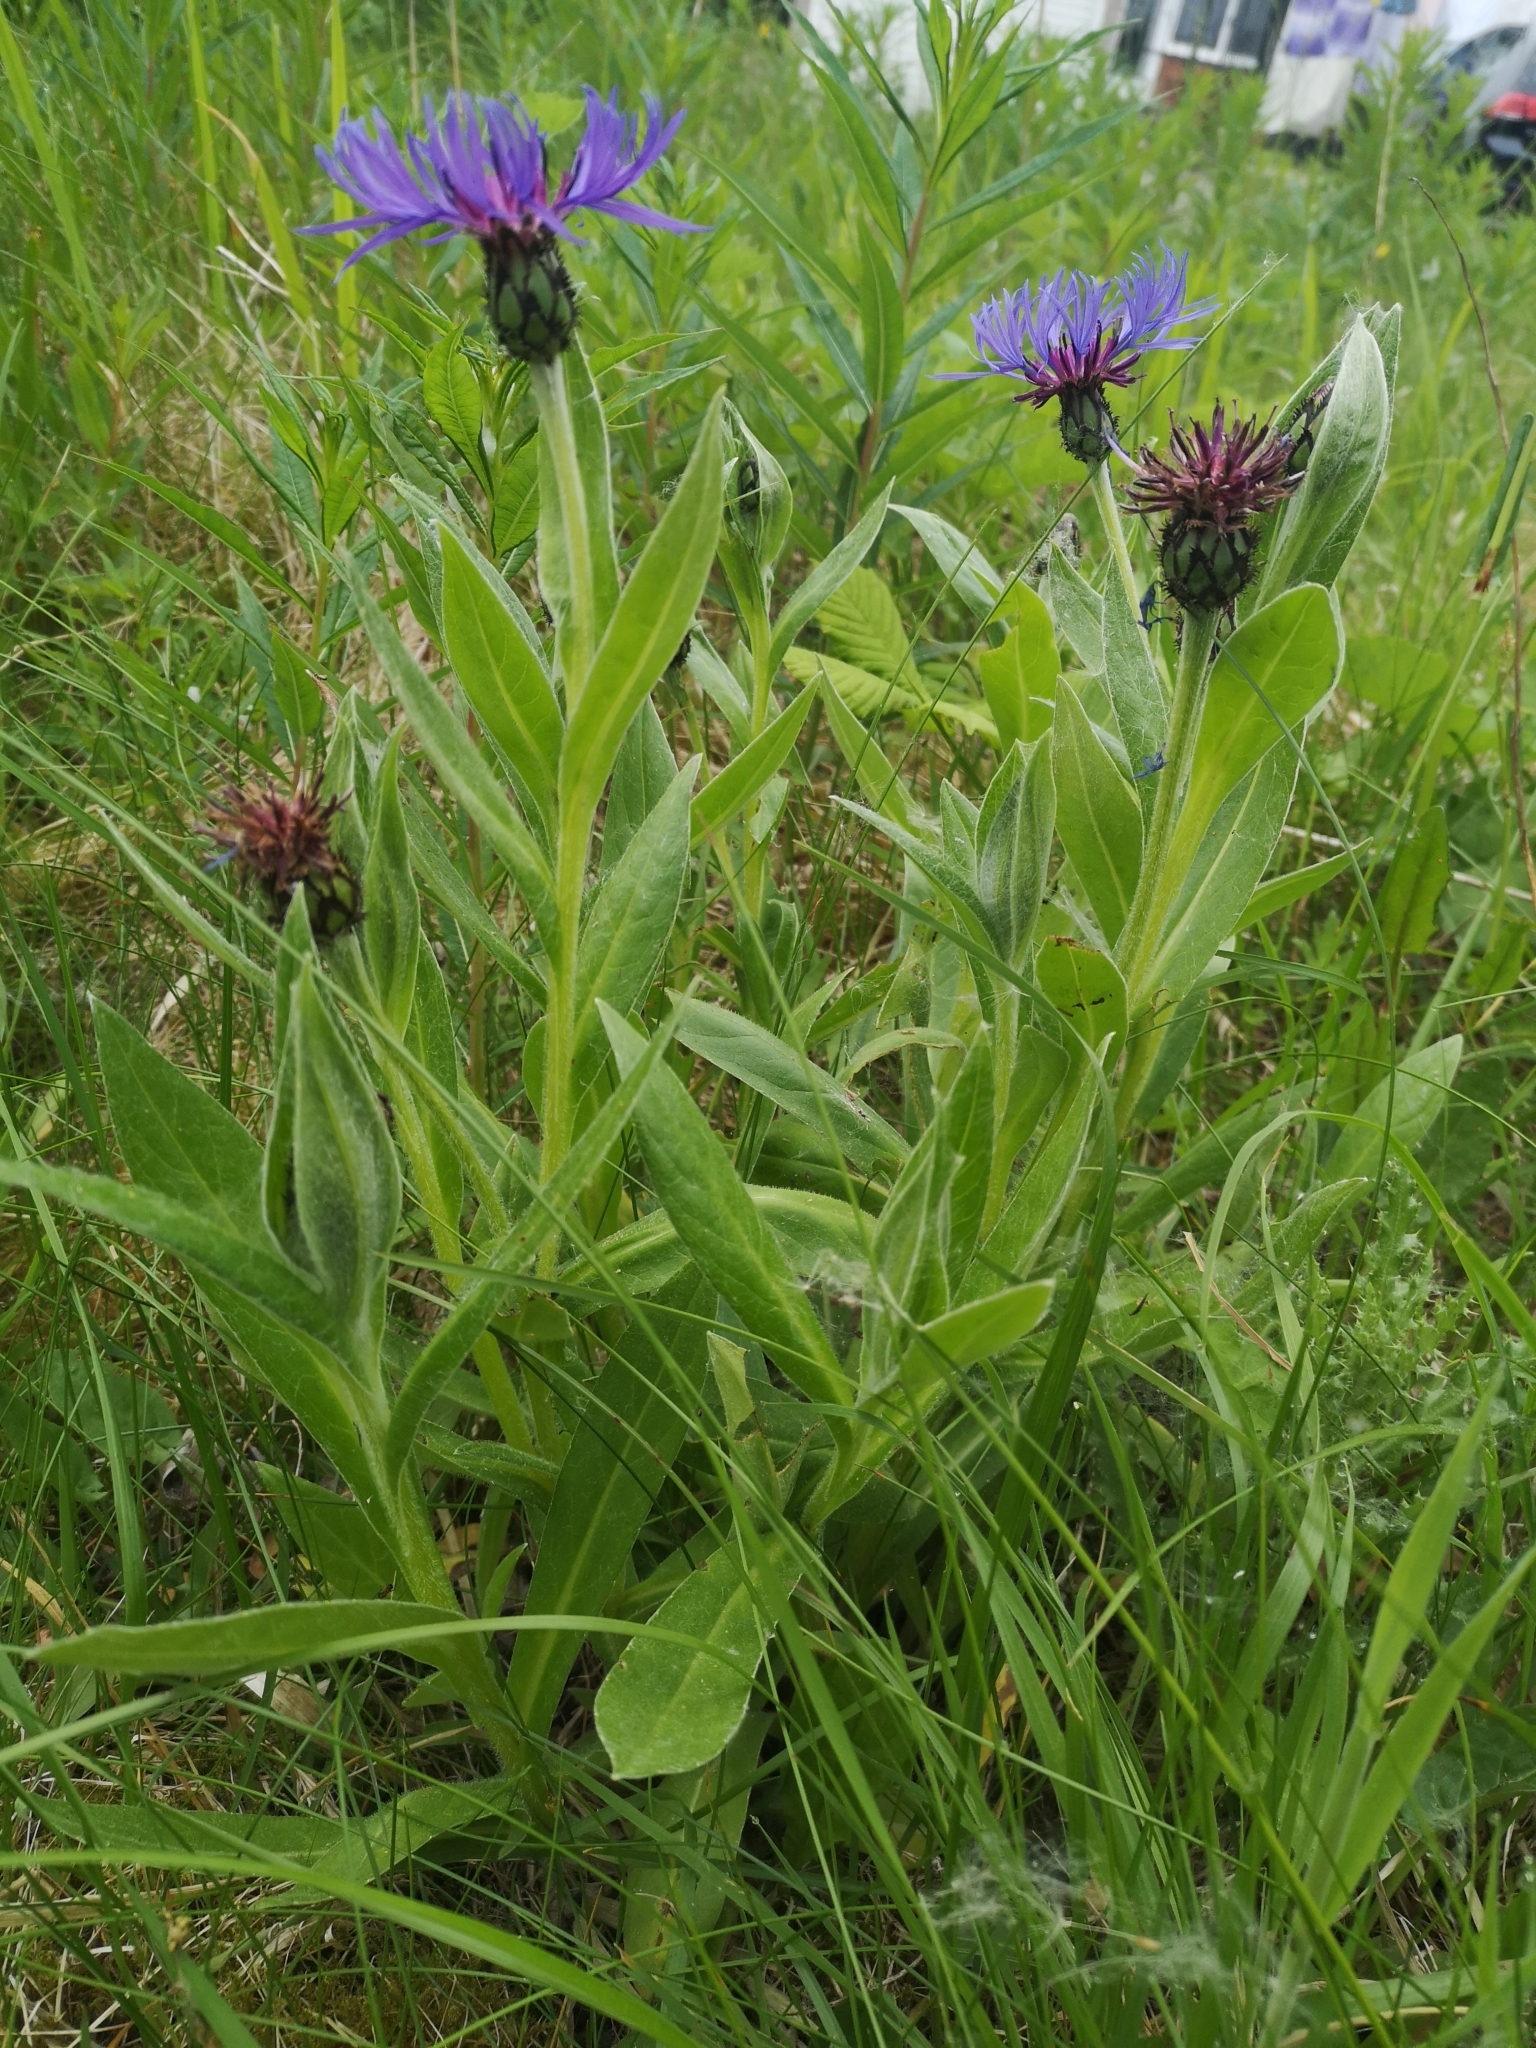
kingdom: Plantae
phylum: Tracheophyta
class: Magnoliopsida
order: Asterales
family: Asteraceae
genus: Centaurea
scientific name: Centaurea montana
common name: Perennial cornflower
